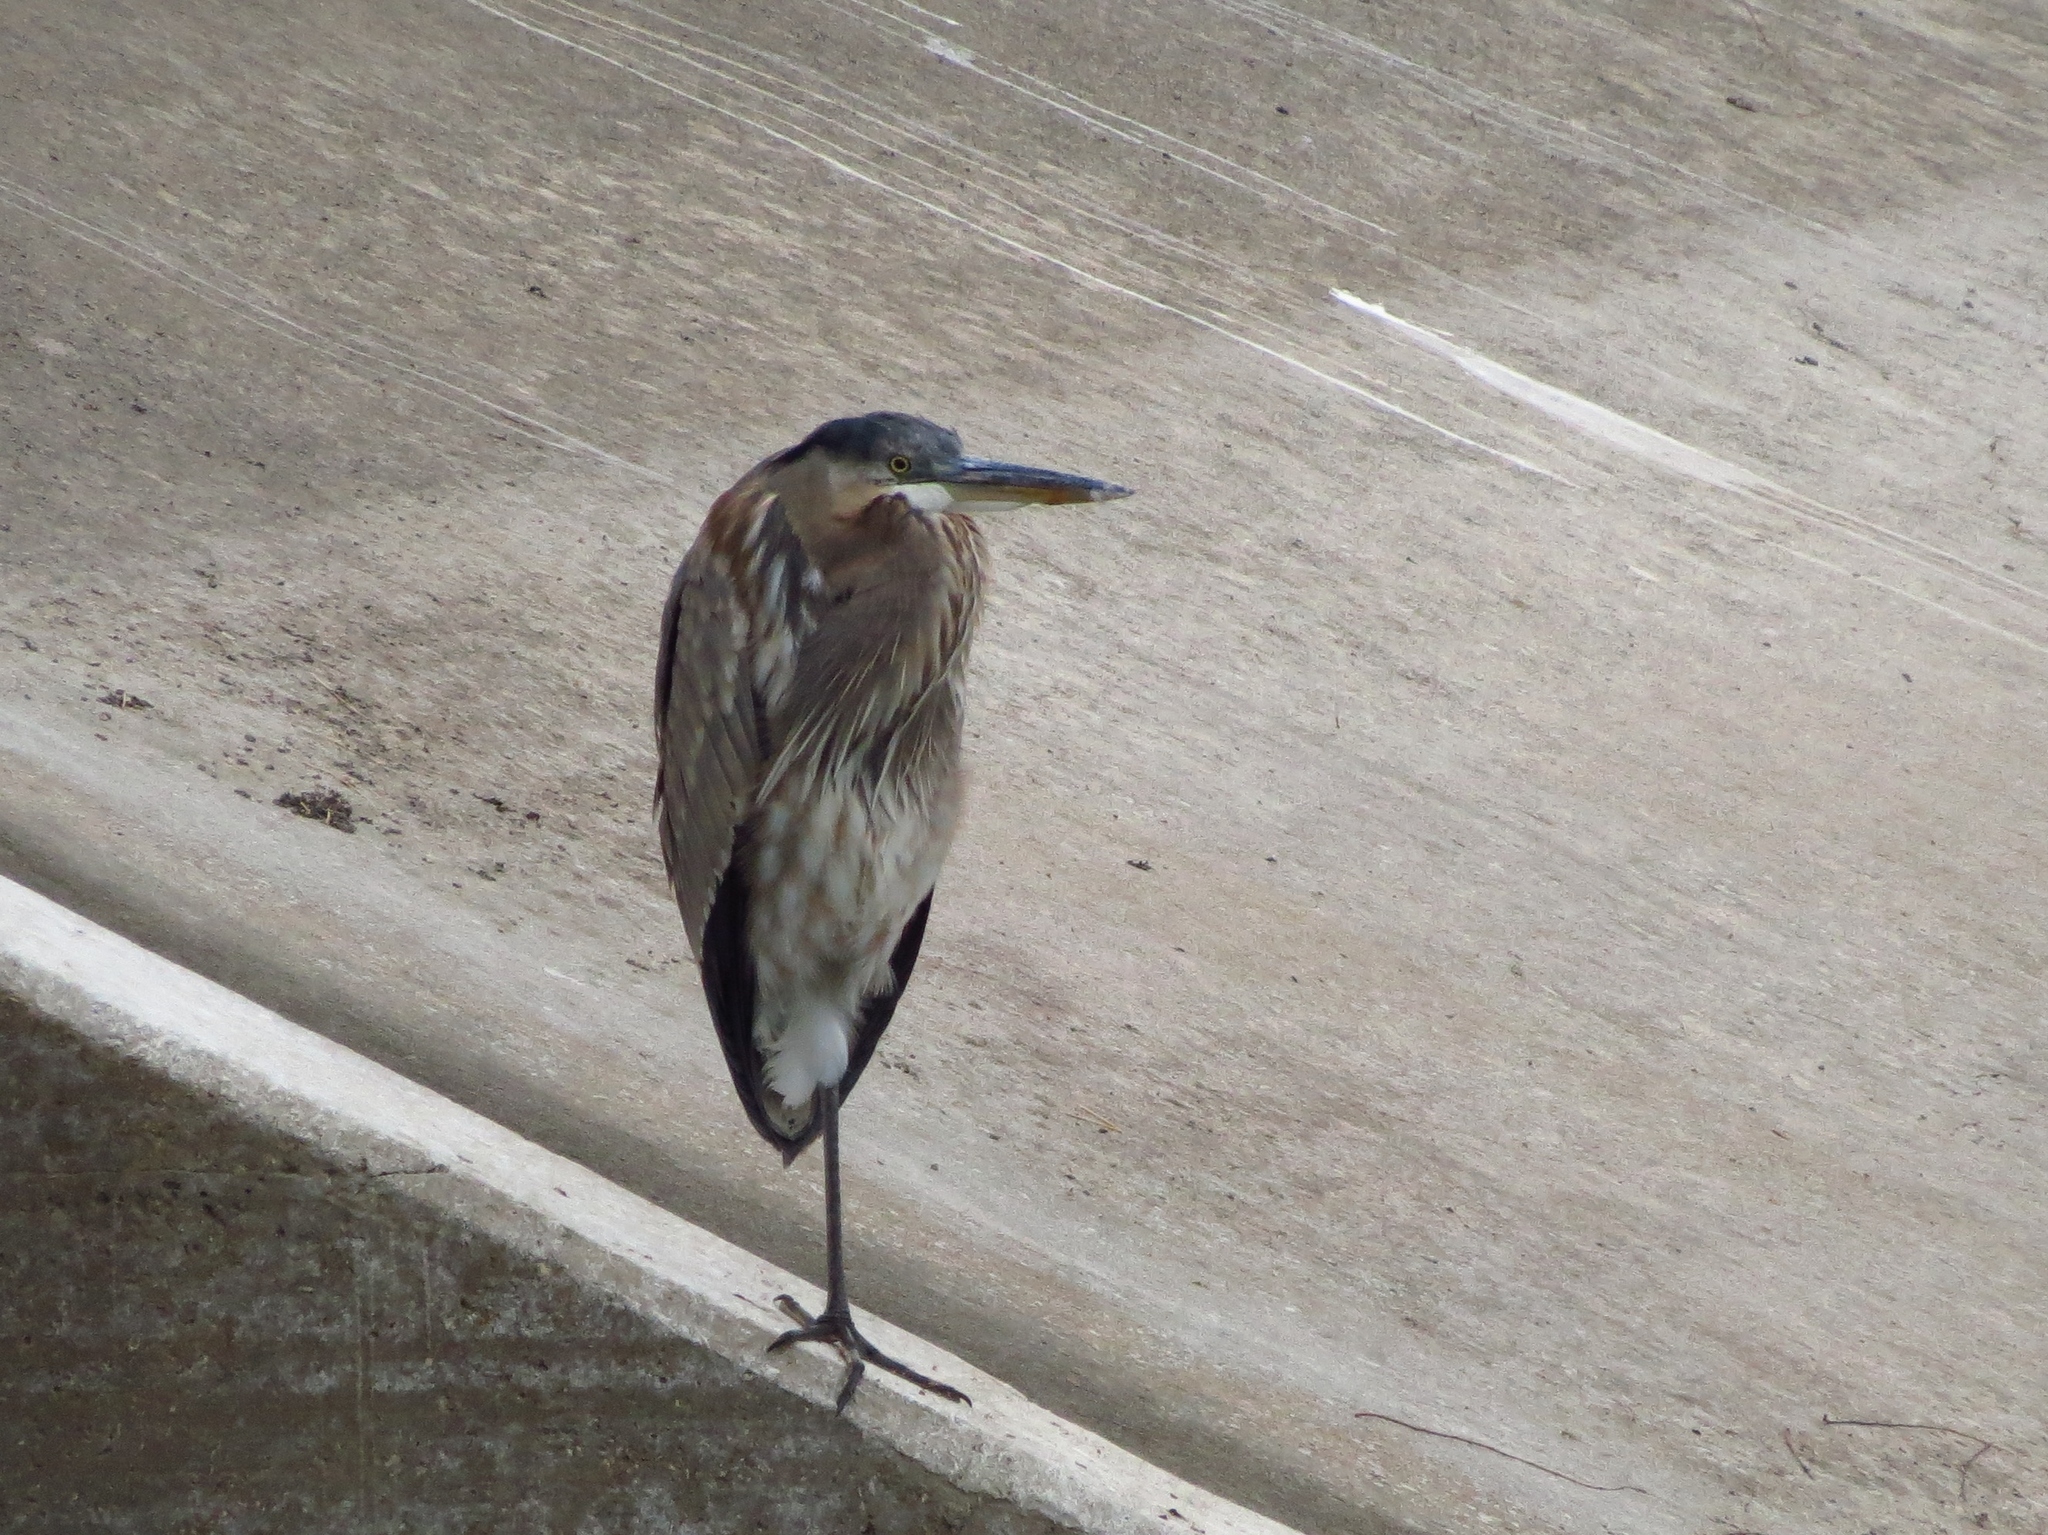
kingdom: Animalia
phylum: Chordata
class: Aves
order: Pelecaniformes
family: Ardeidae
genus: Ardea
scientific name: Ardea herodias
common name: Great blue heron
